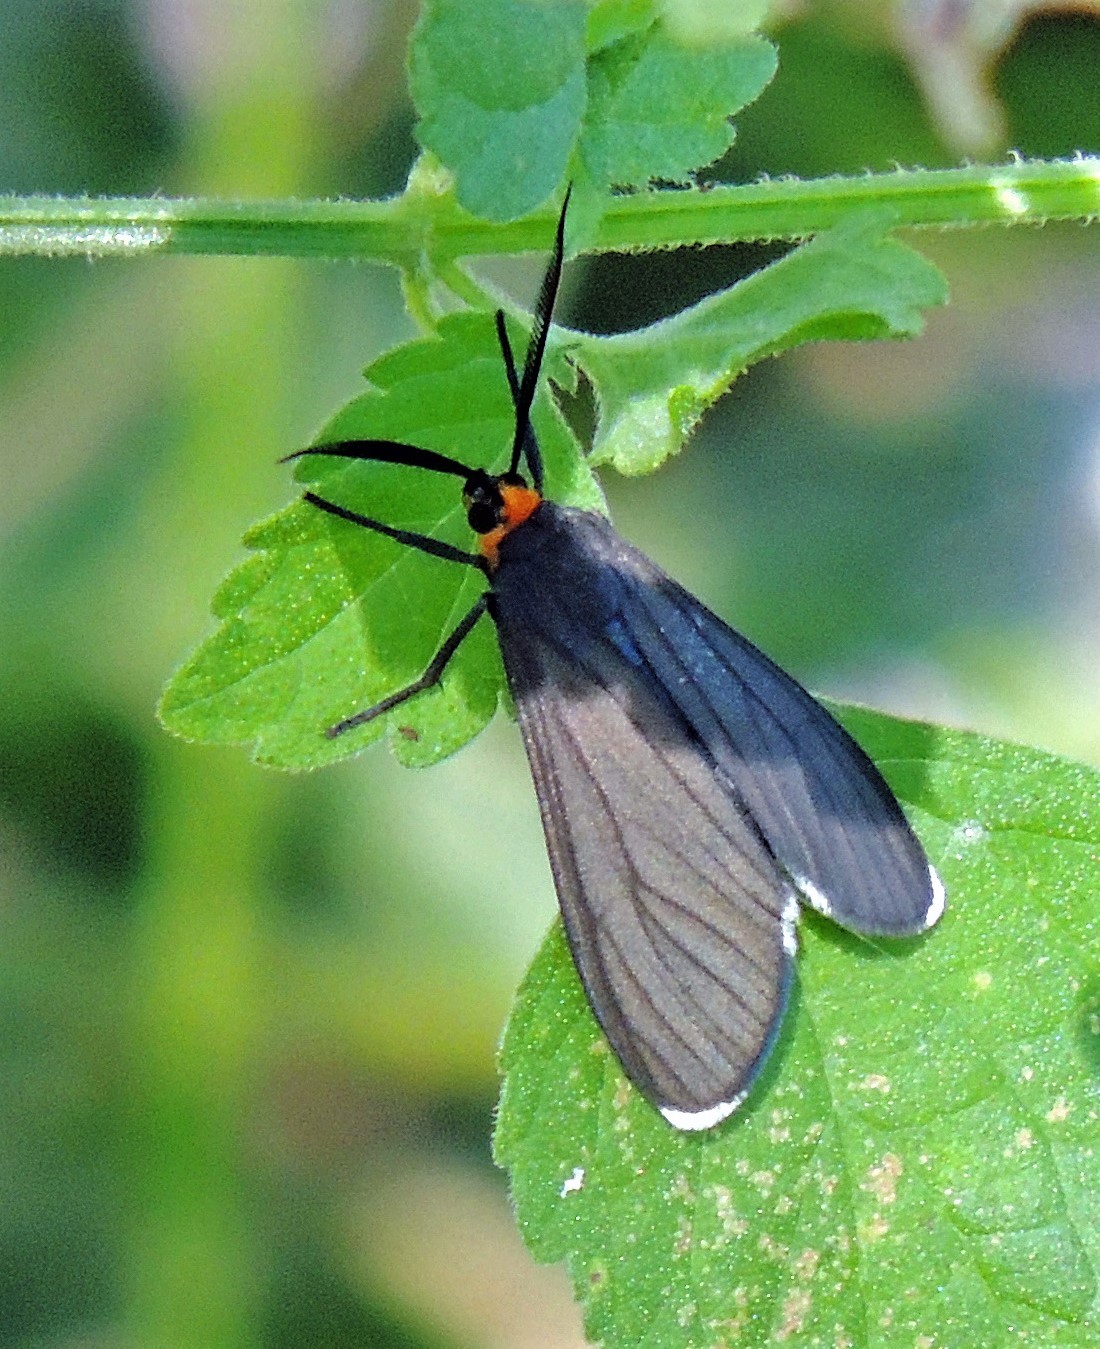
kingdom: Animalia
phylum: Arthropoda
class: Insecta
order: Lepidoptera
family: Erebidae
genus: Ctenucha
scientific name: Ctenucha rubriceps
